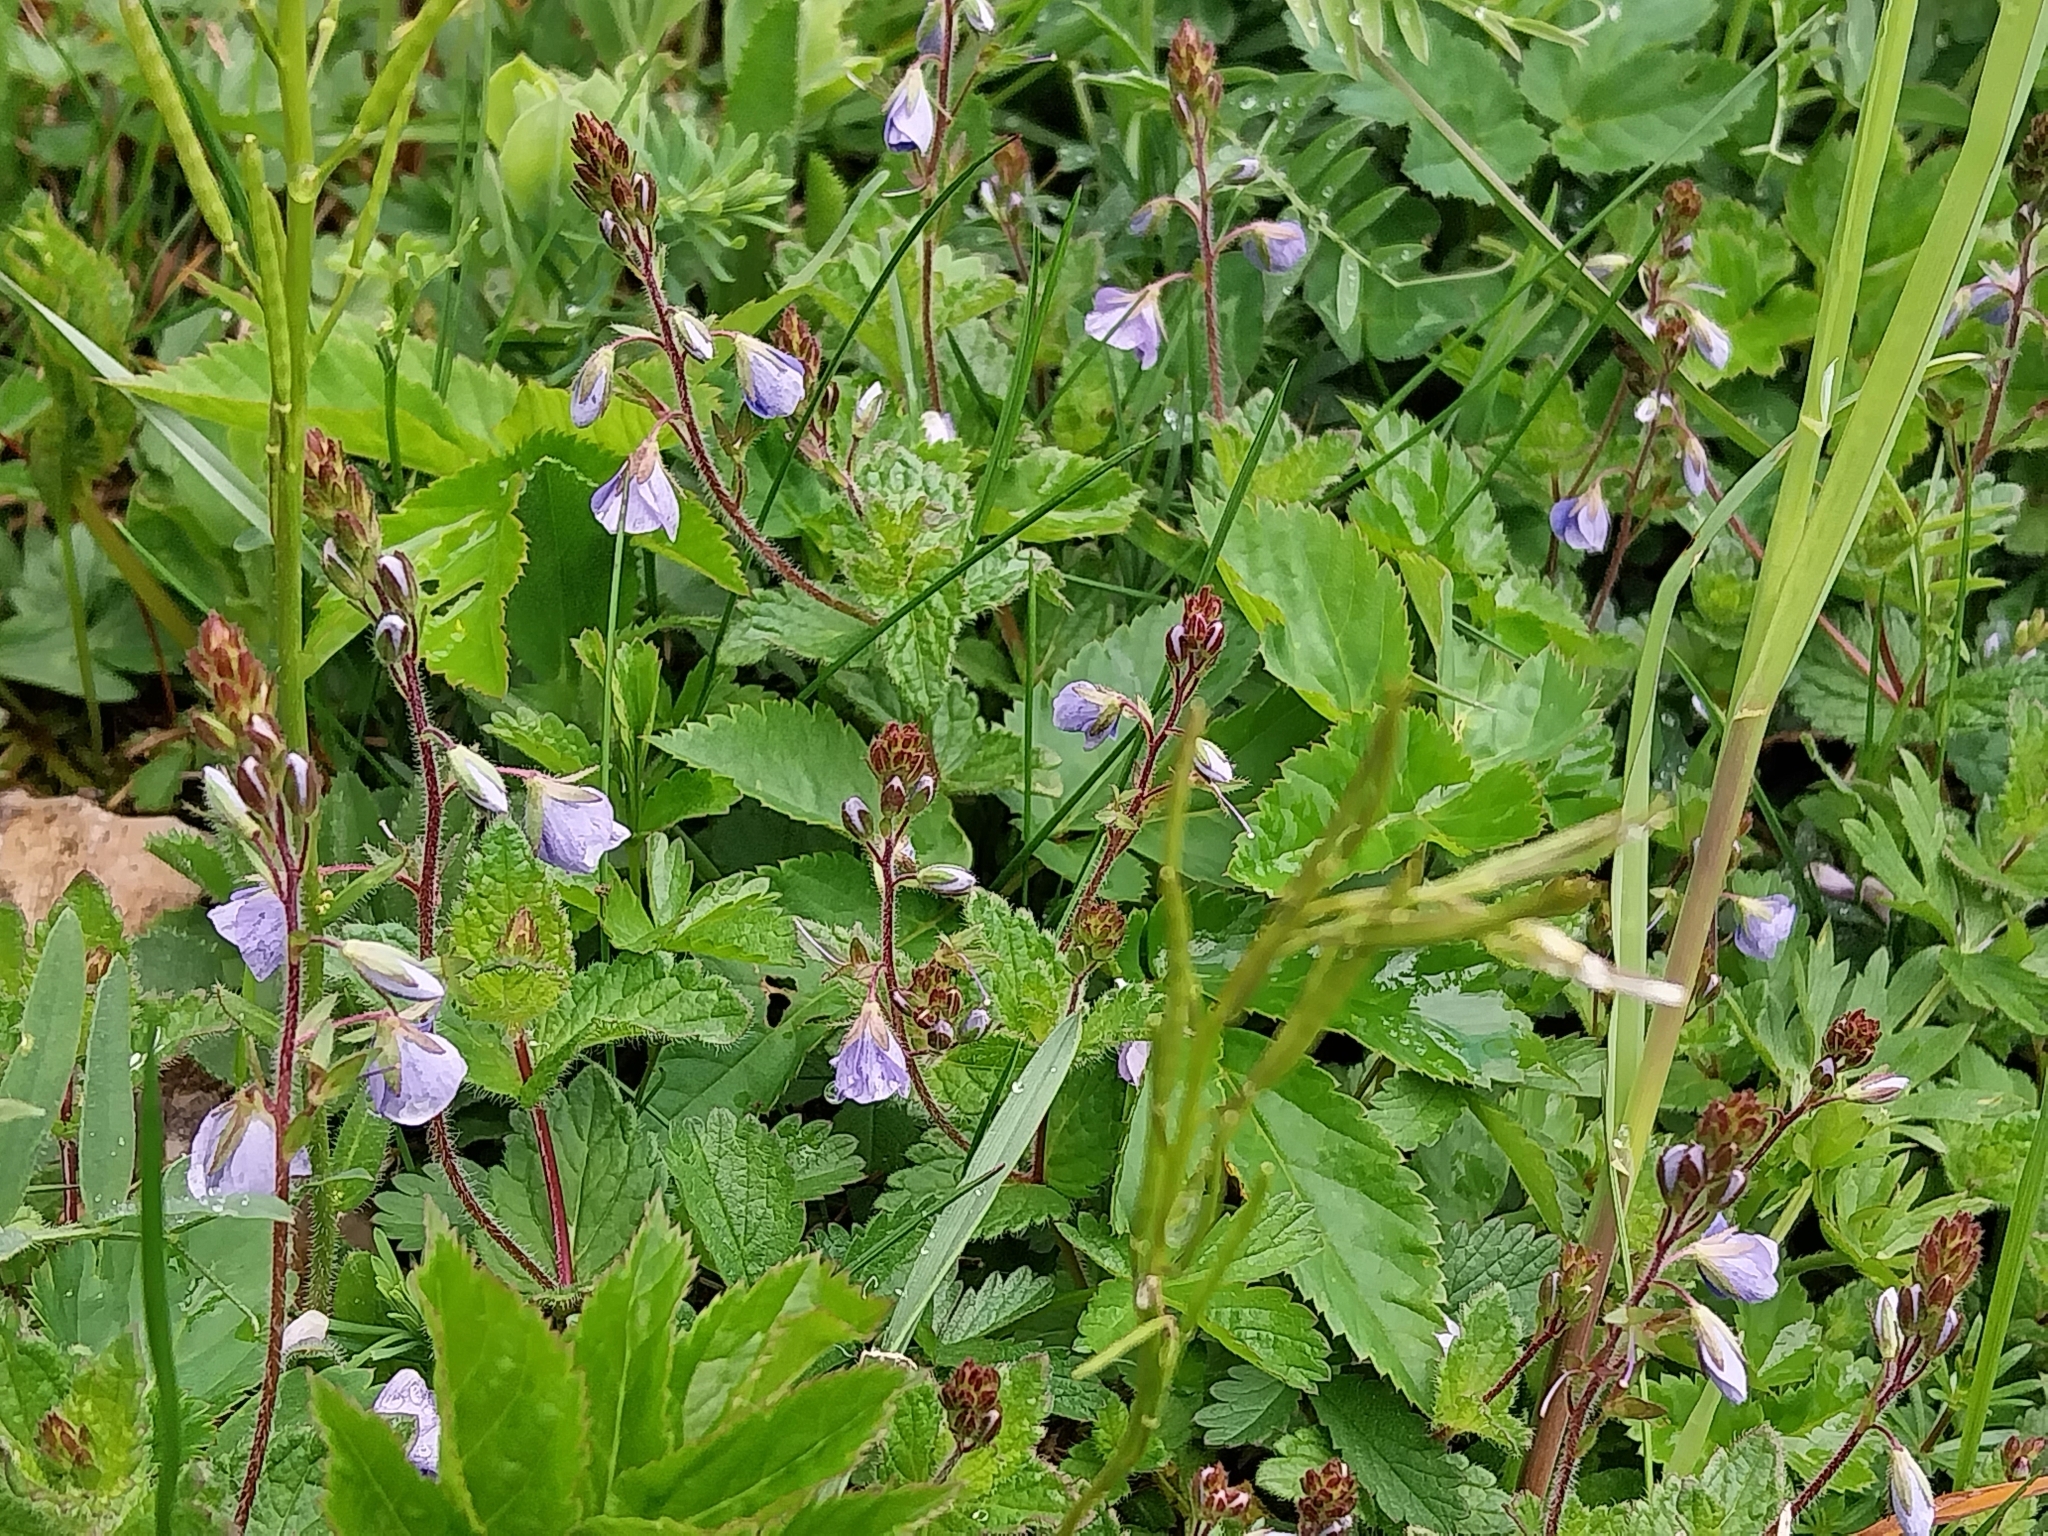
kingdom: Plantae
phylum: Tracheophyta
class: Magnoliopsida
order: Lamiales
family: Plantaginaceae
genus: Veronica
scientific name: Veronica chamaedrys
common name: Germander speedwell
